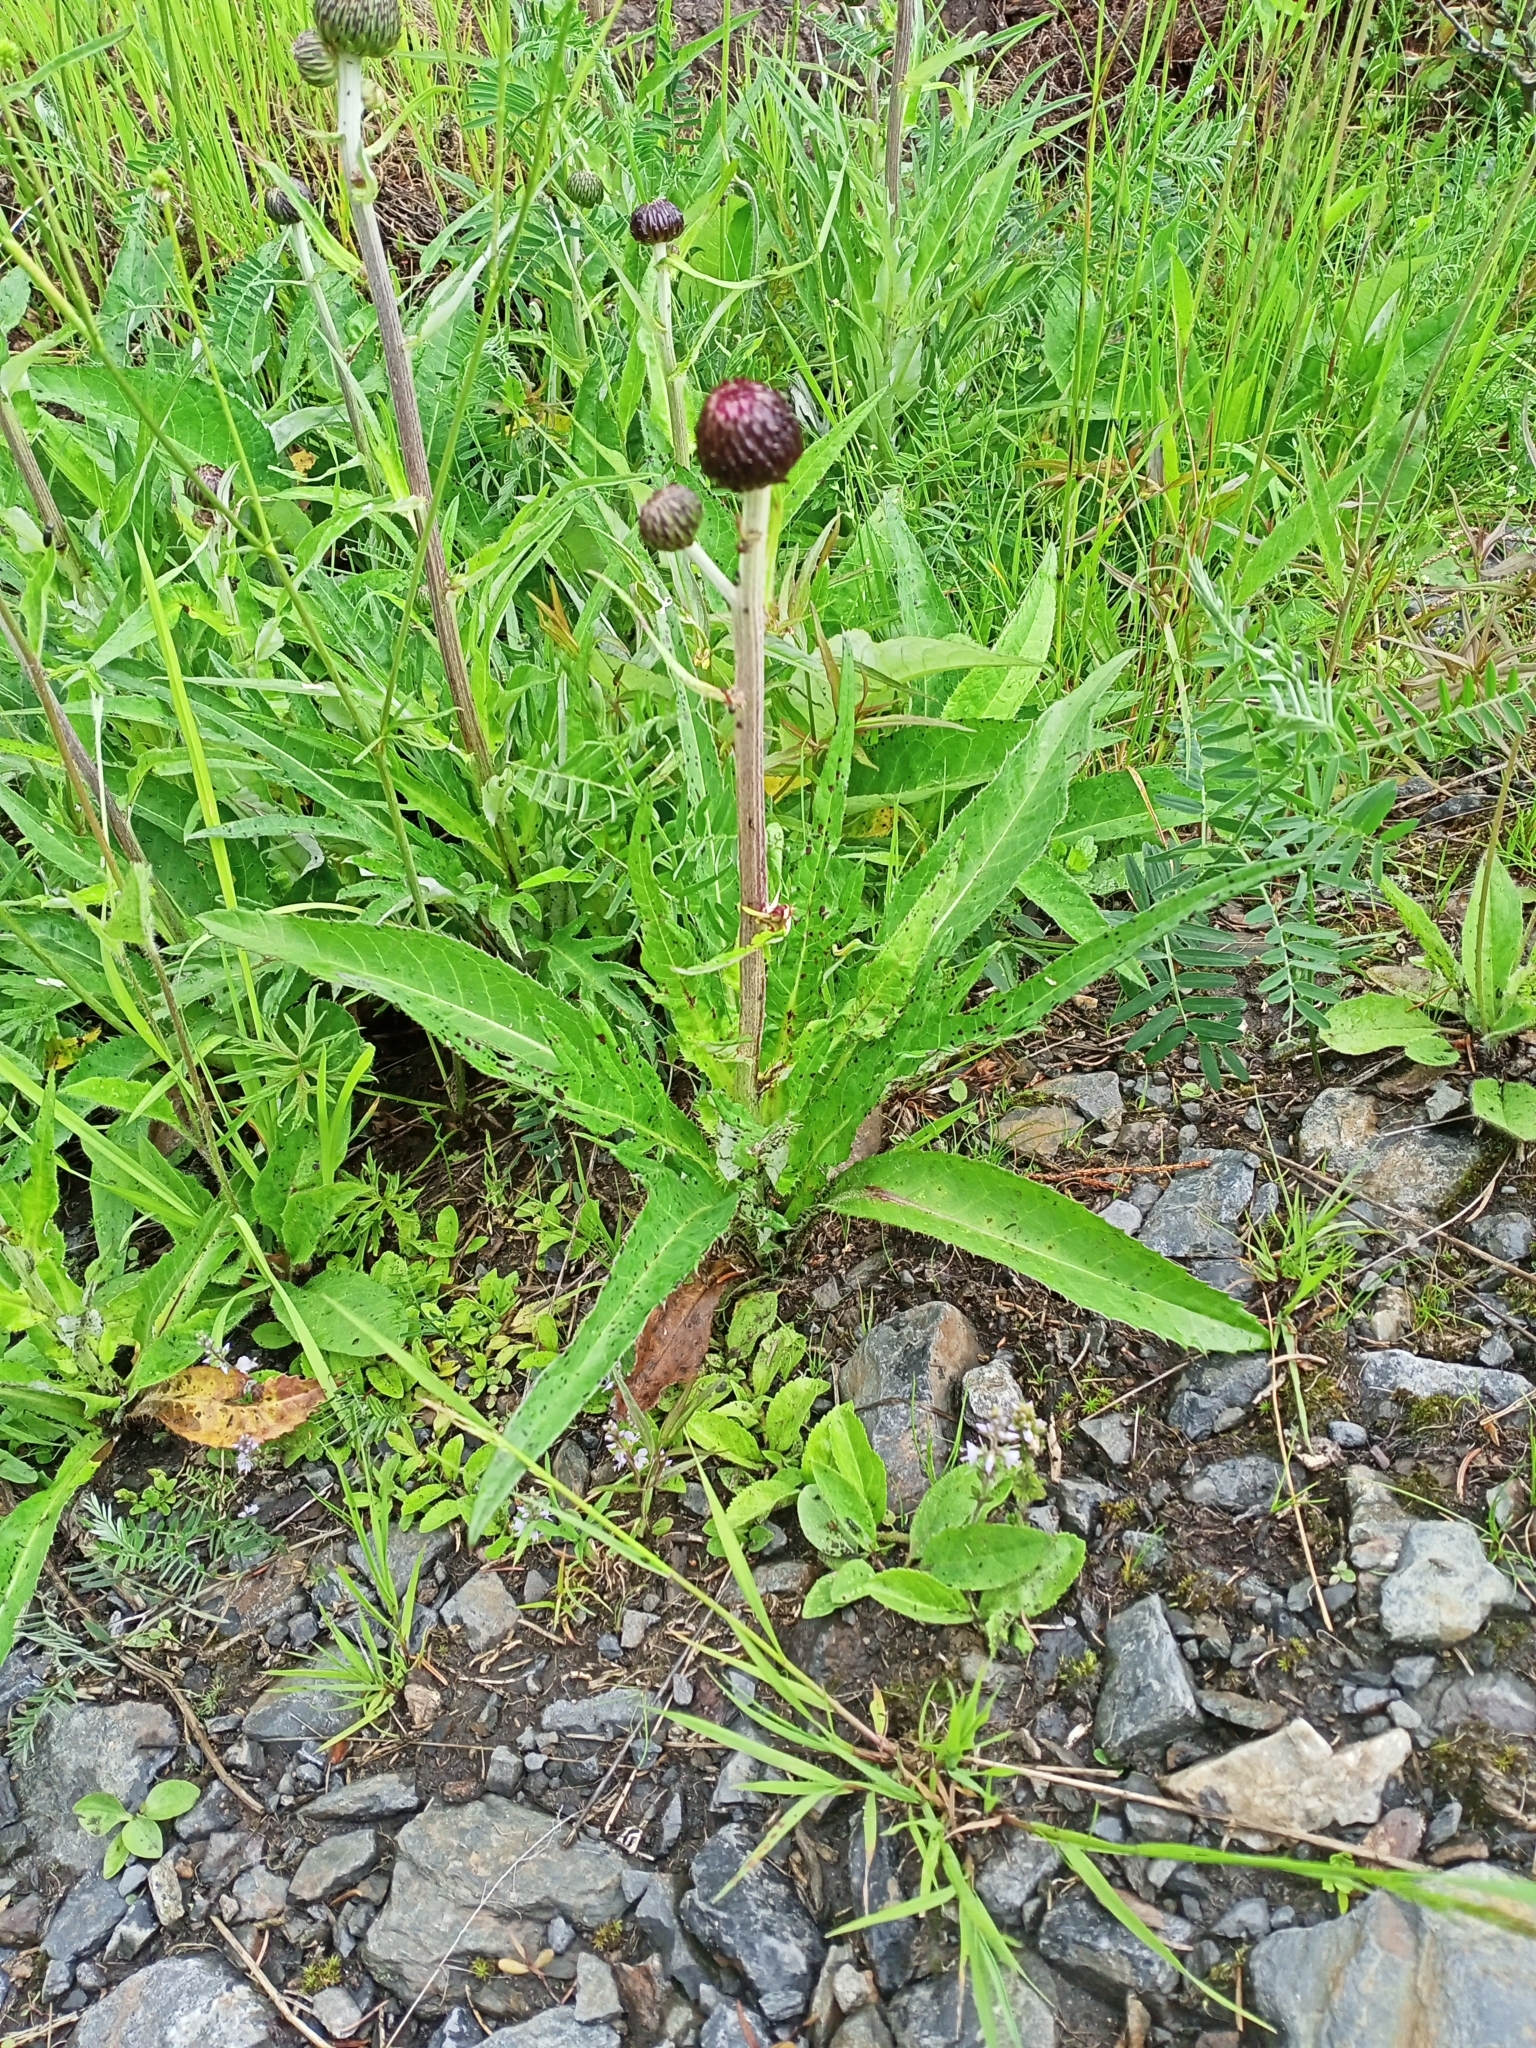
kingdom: Plantae
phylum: Tracheophyta
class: Magnoliopsida
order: Asterales
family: Asteraceae
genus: Cirsium
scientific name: Cirsium heterophyllum
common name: Melancholy thistle
